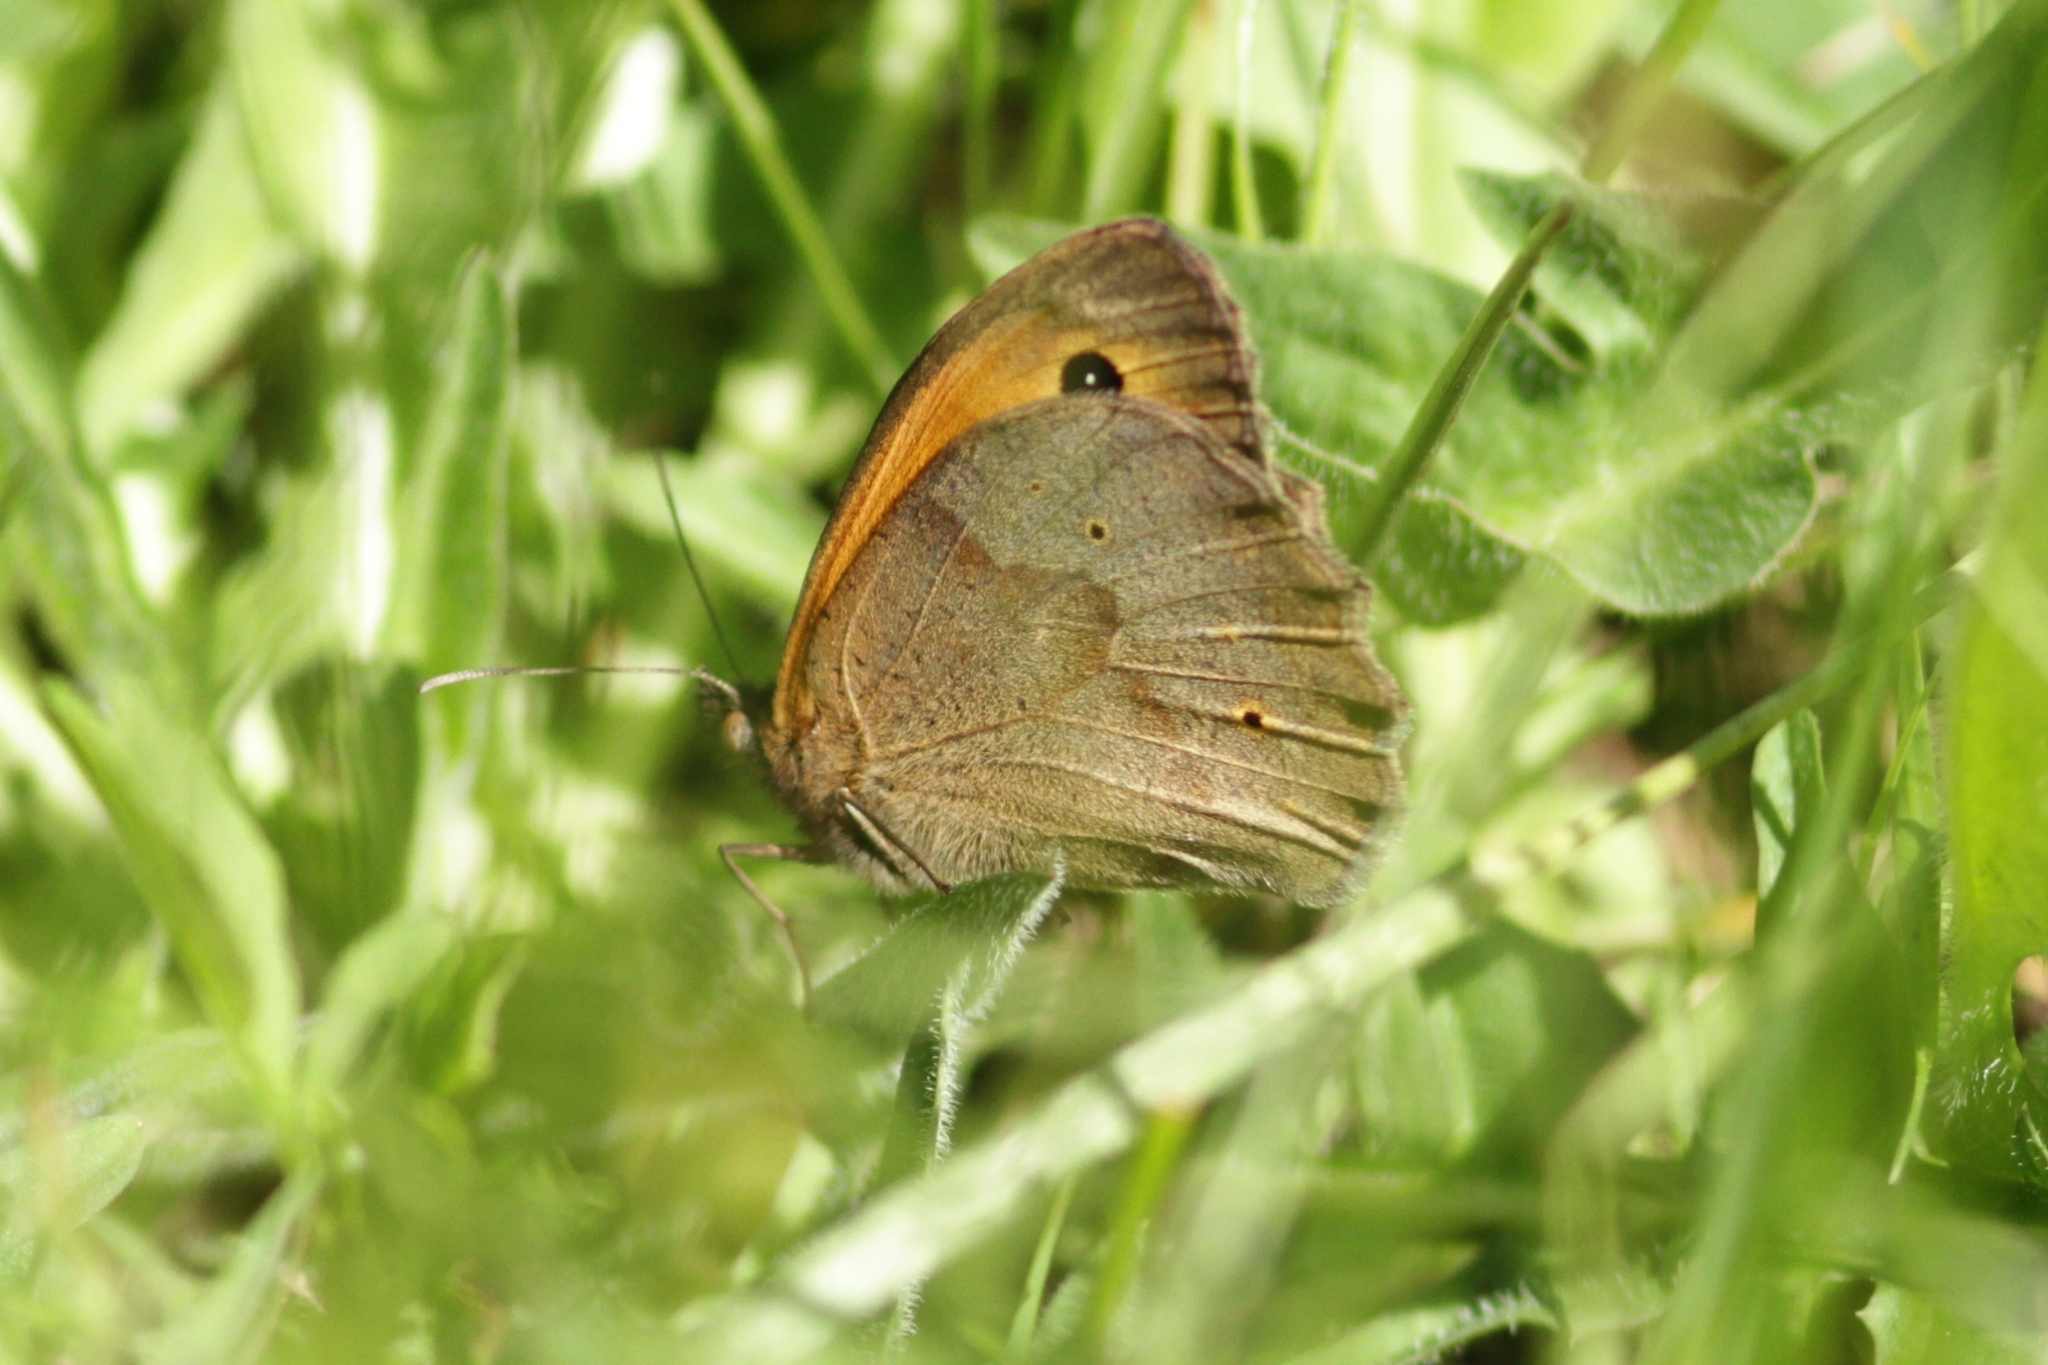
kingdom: Animalia
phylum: Arthropoda
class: Insecta
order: Lepidoptera
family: Nymphalidae
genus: Maniola
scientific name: Maniola jurtina
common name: Meadow brown
